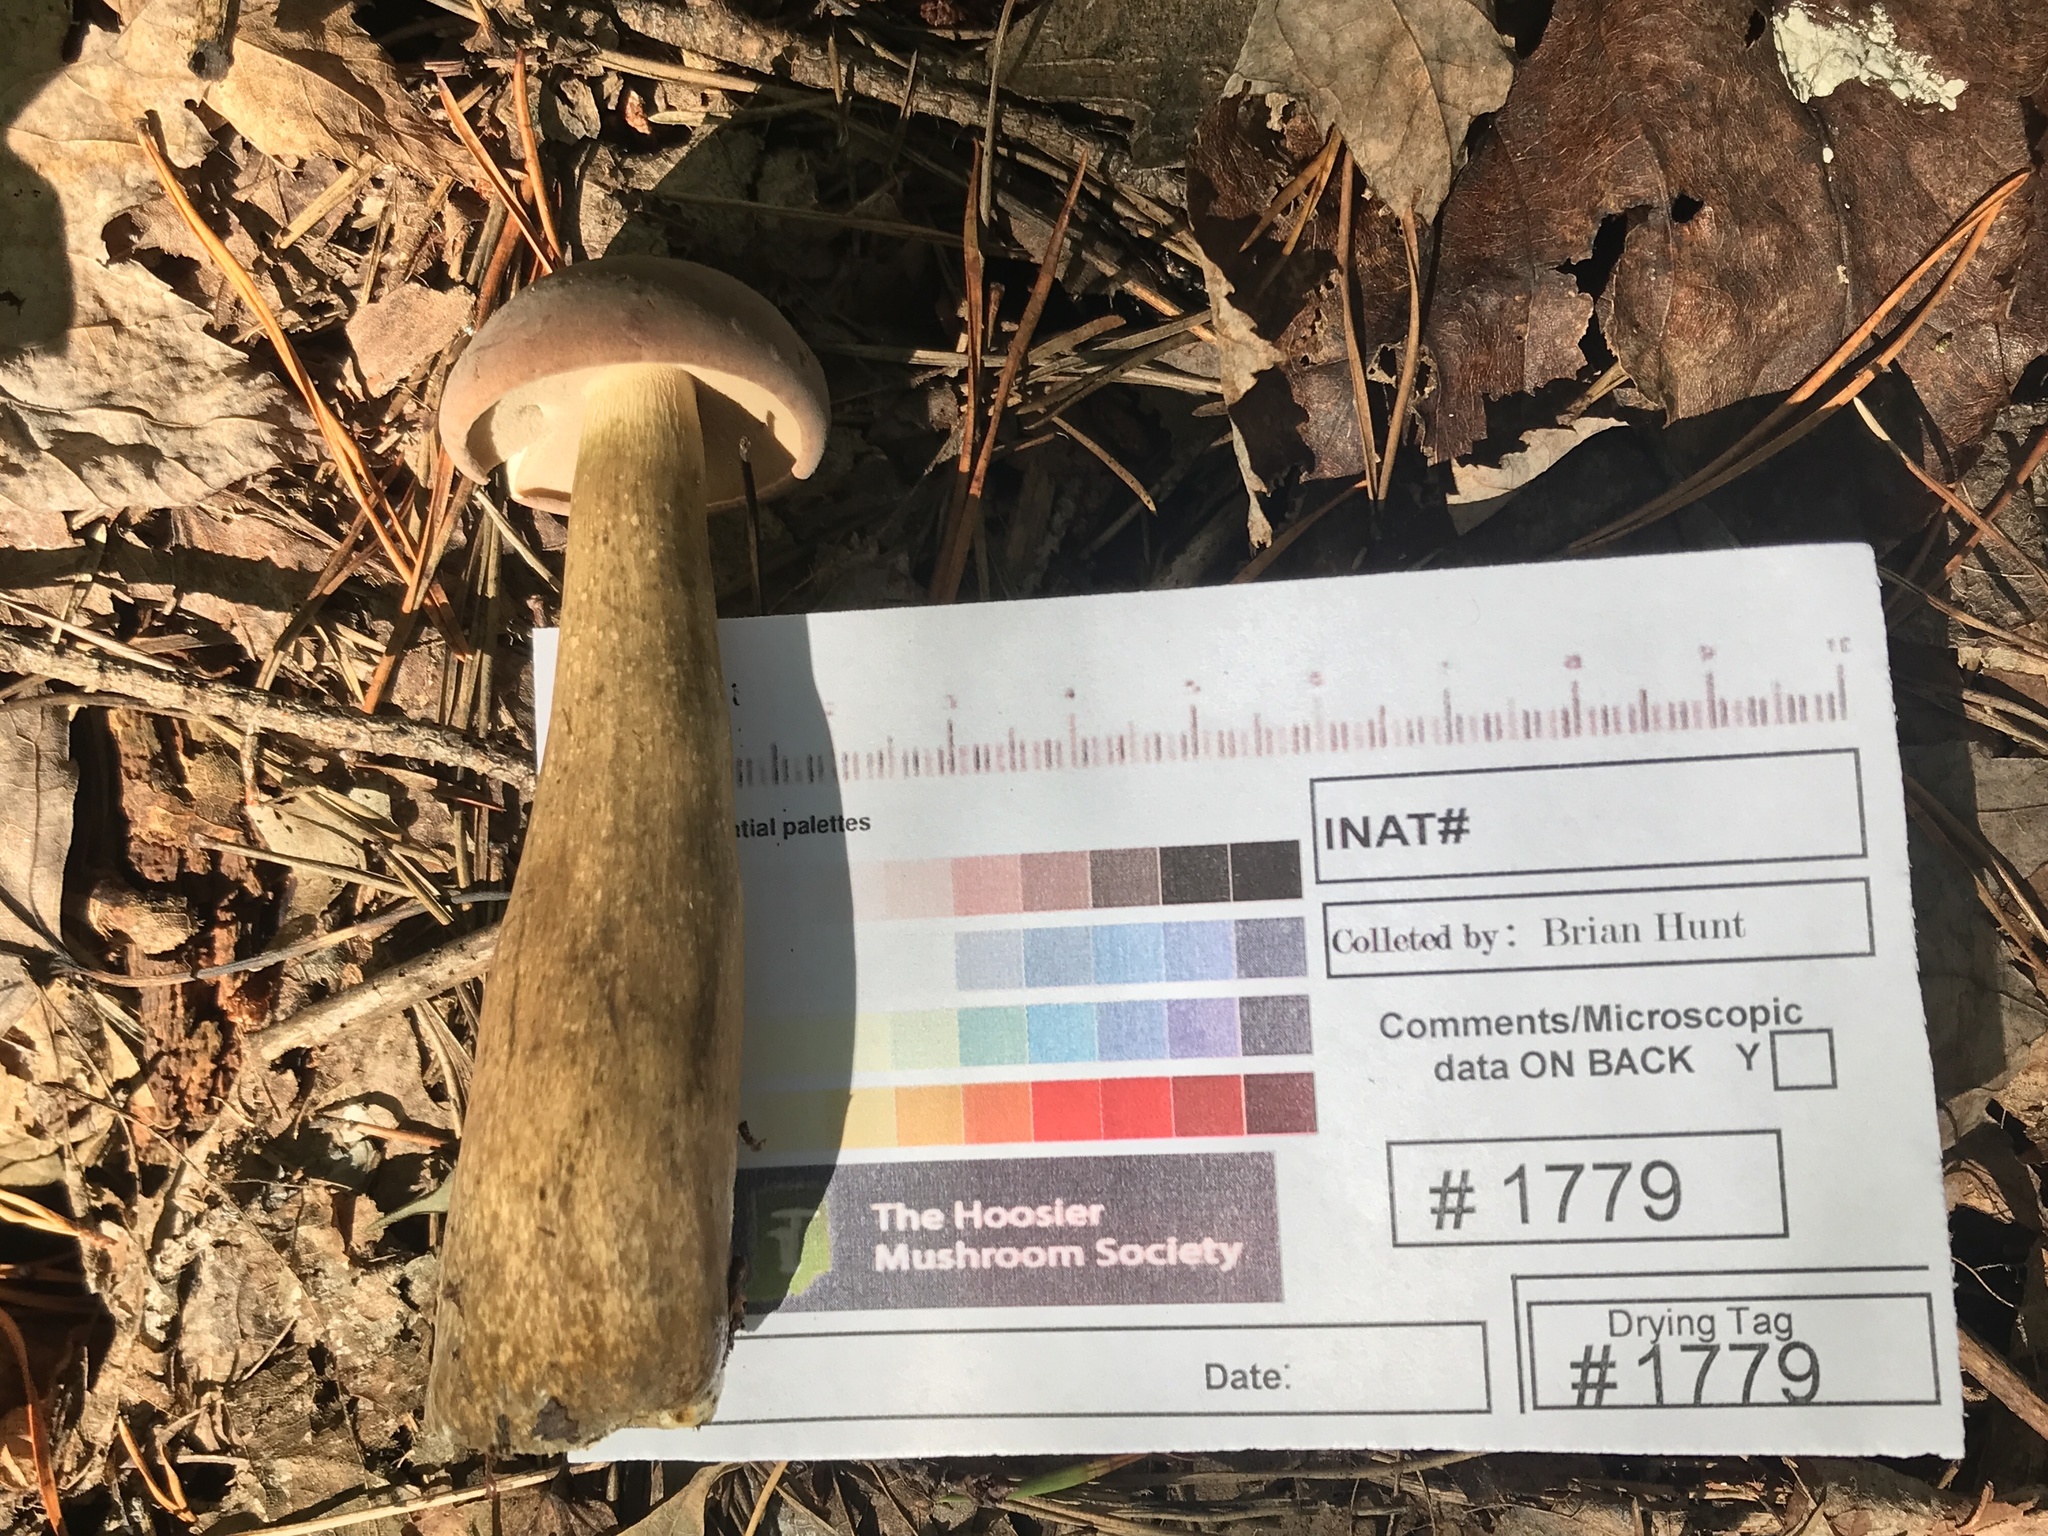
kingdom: Fungi
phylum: Basidiomycota
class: Agaricomycetes
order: Boletales
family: Boletaceae
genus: Tylopilus
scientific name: Tylopilus rubrobrunneus
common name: Reddish brown bitter bolete
